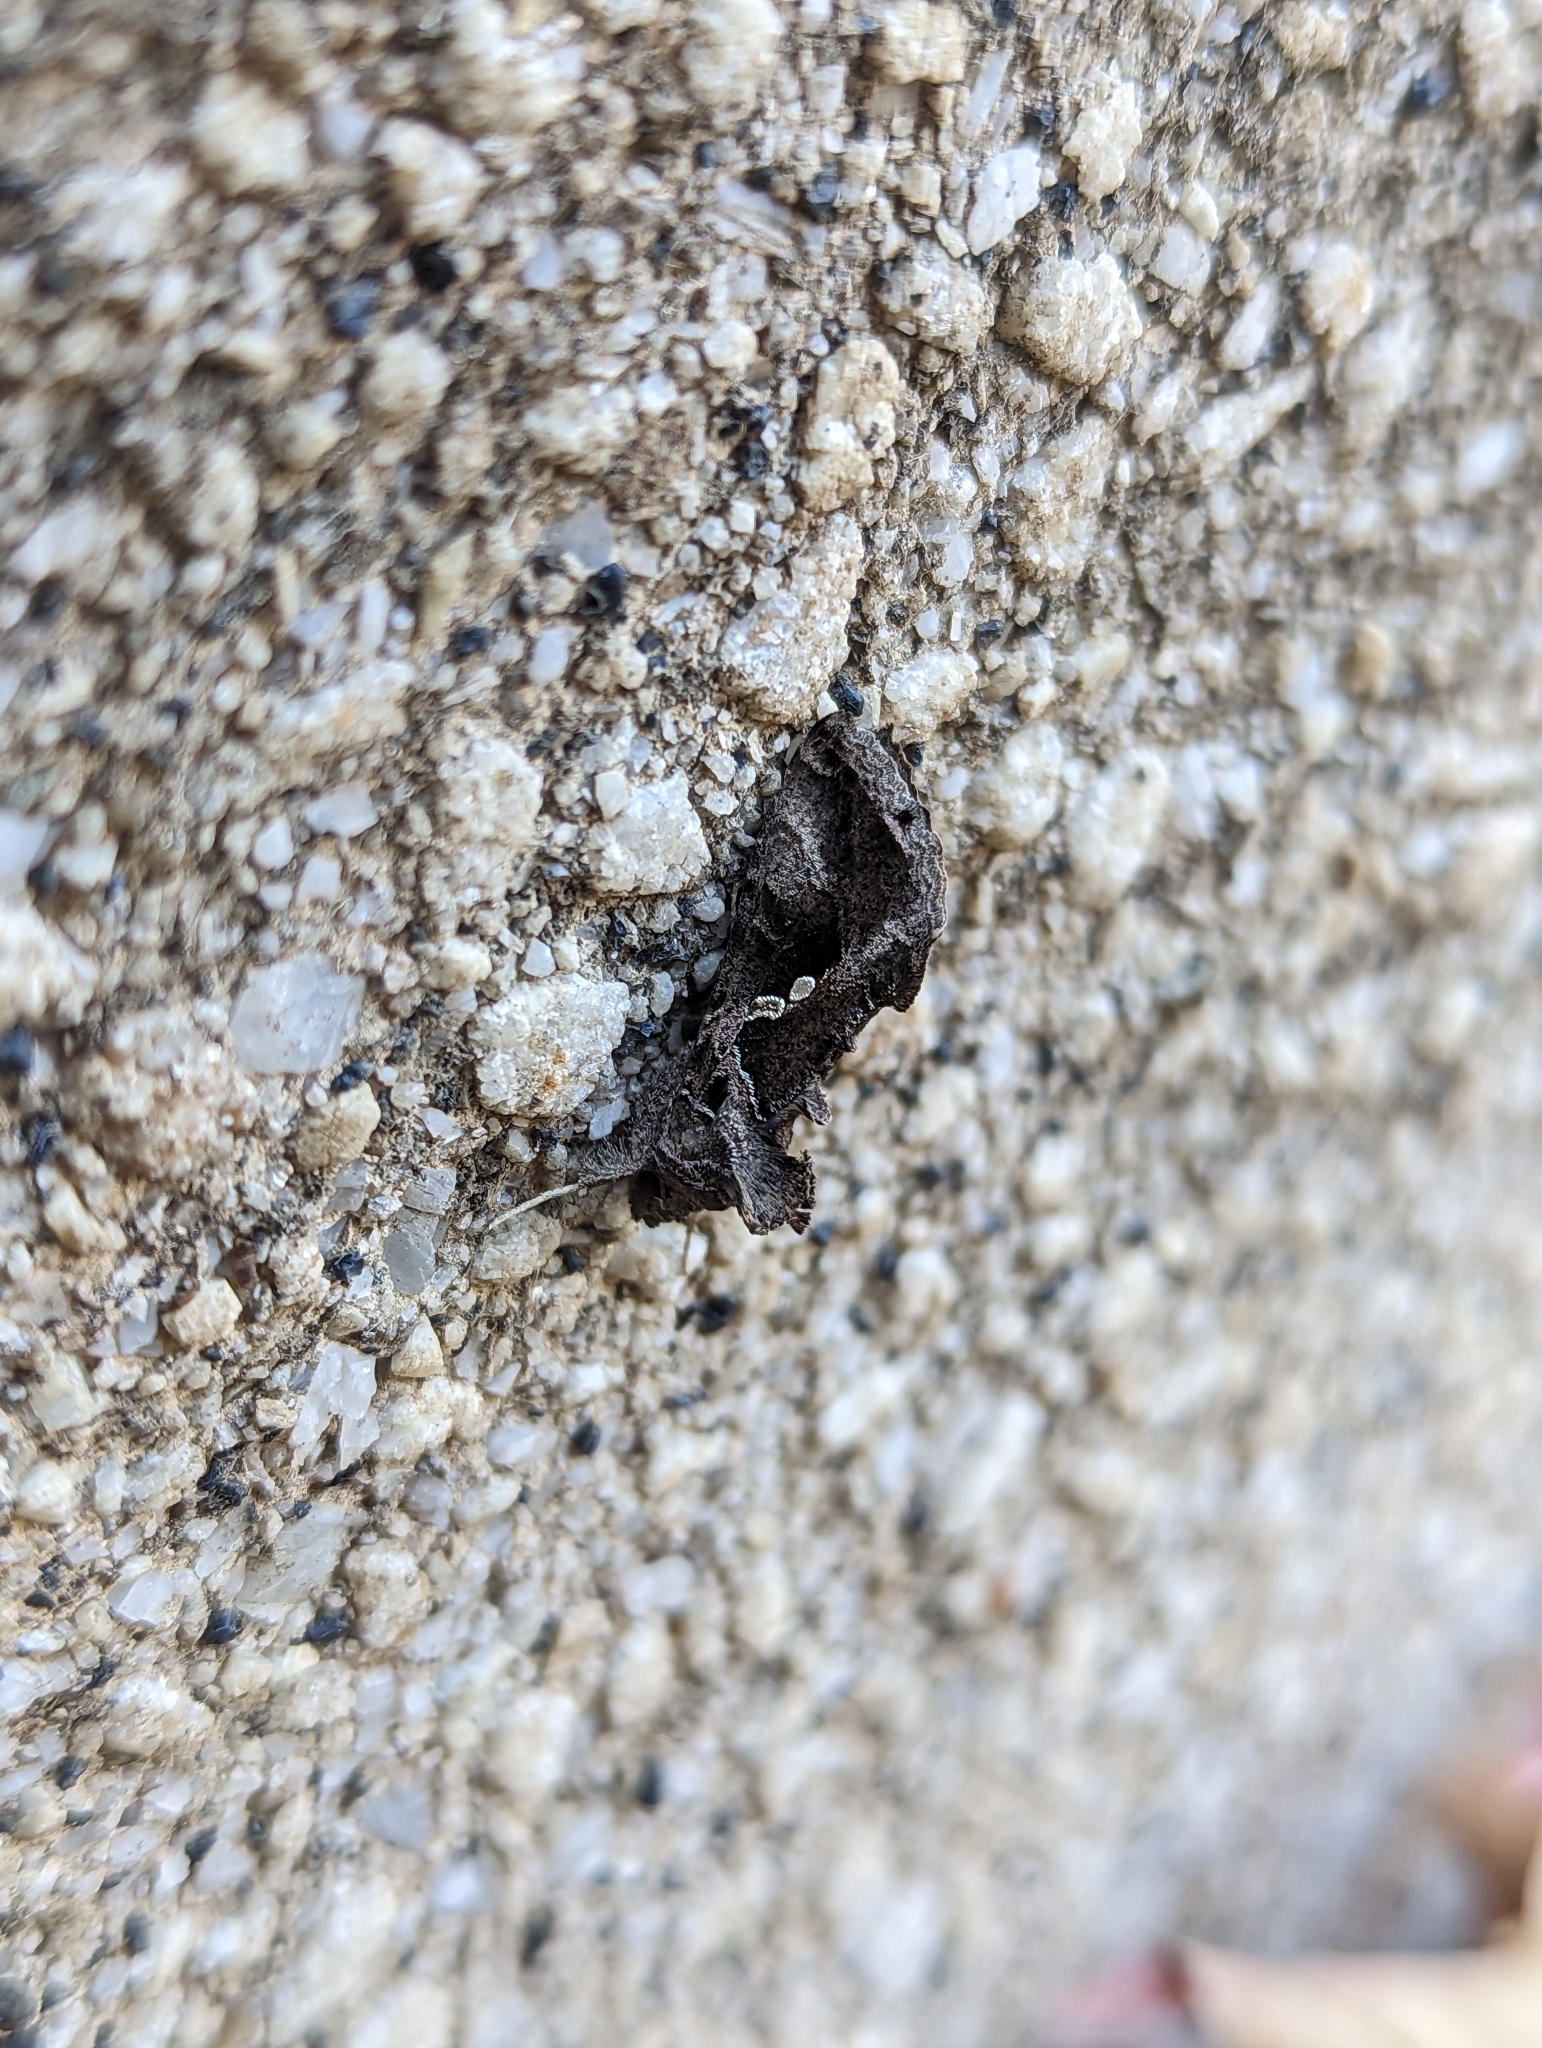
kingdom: Animalia
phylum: Arthropoda
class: Insecta
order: Lepidoptera
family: Noctuidae
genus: Chrysodeixis
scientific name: Chrysodeixis includens
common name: Cutworm moth
